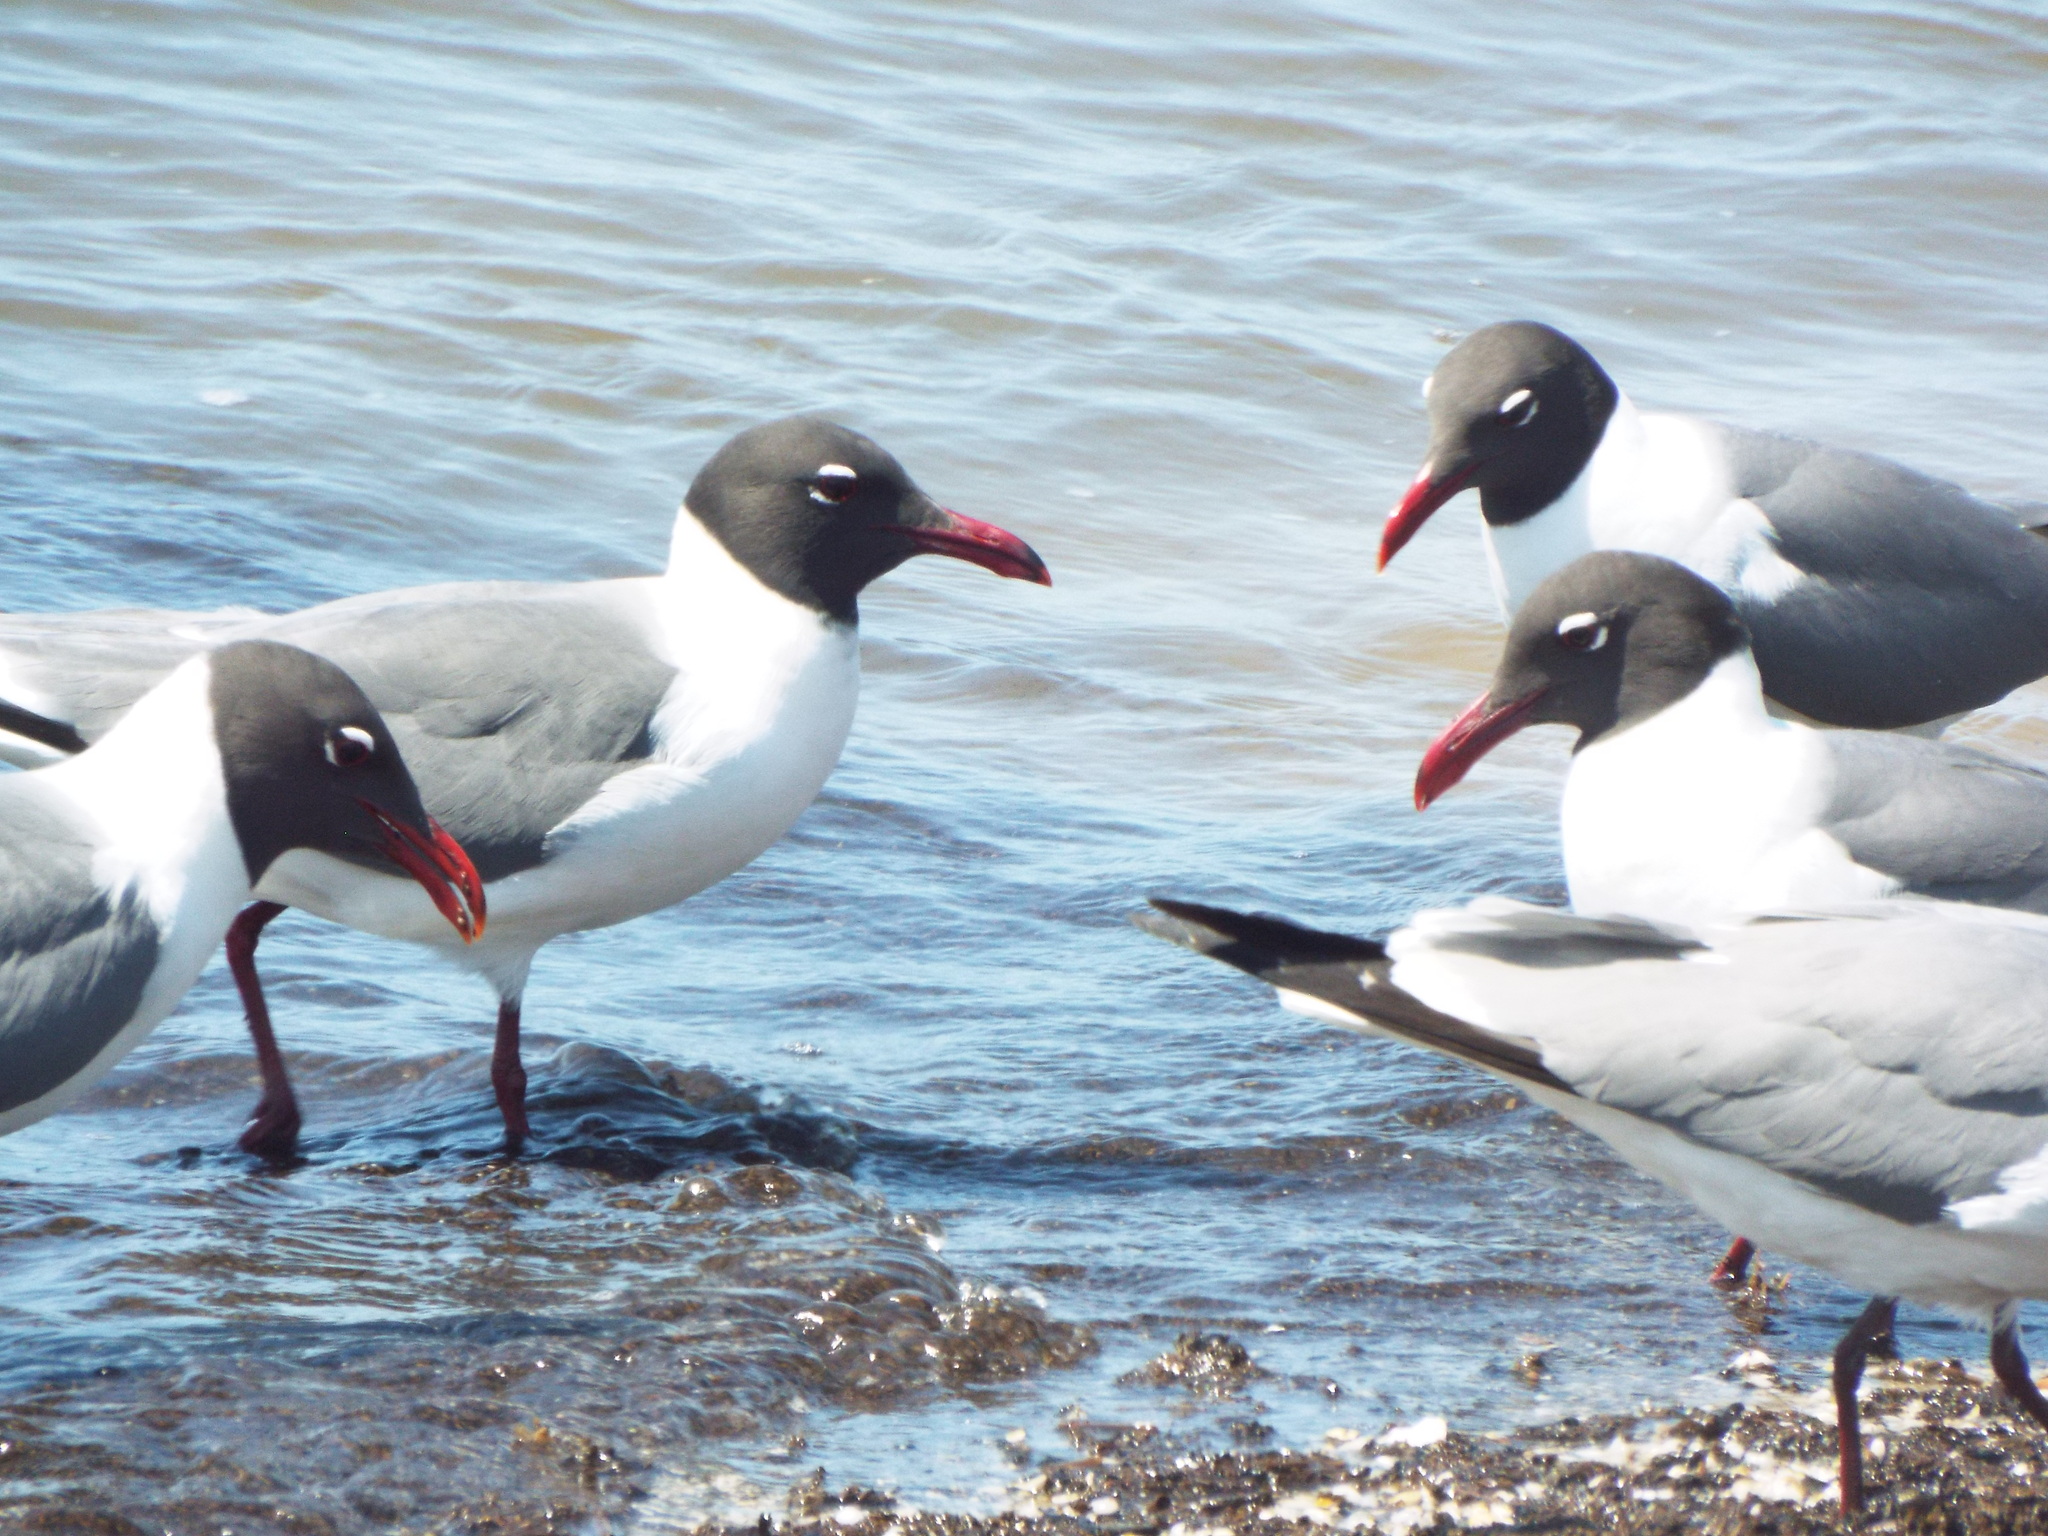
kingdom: Animalia
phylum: Chordata
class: Aves
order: Charadriiformes
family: Laridae
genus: Leucophaeus
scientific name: Leucophaeus atricilla
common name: Laughing gull
